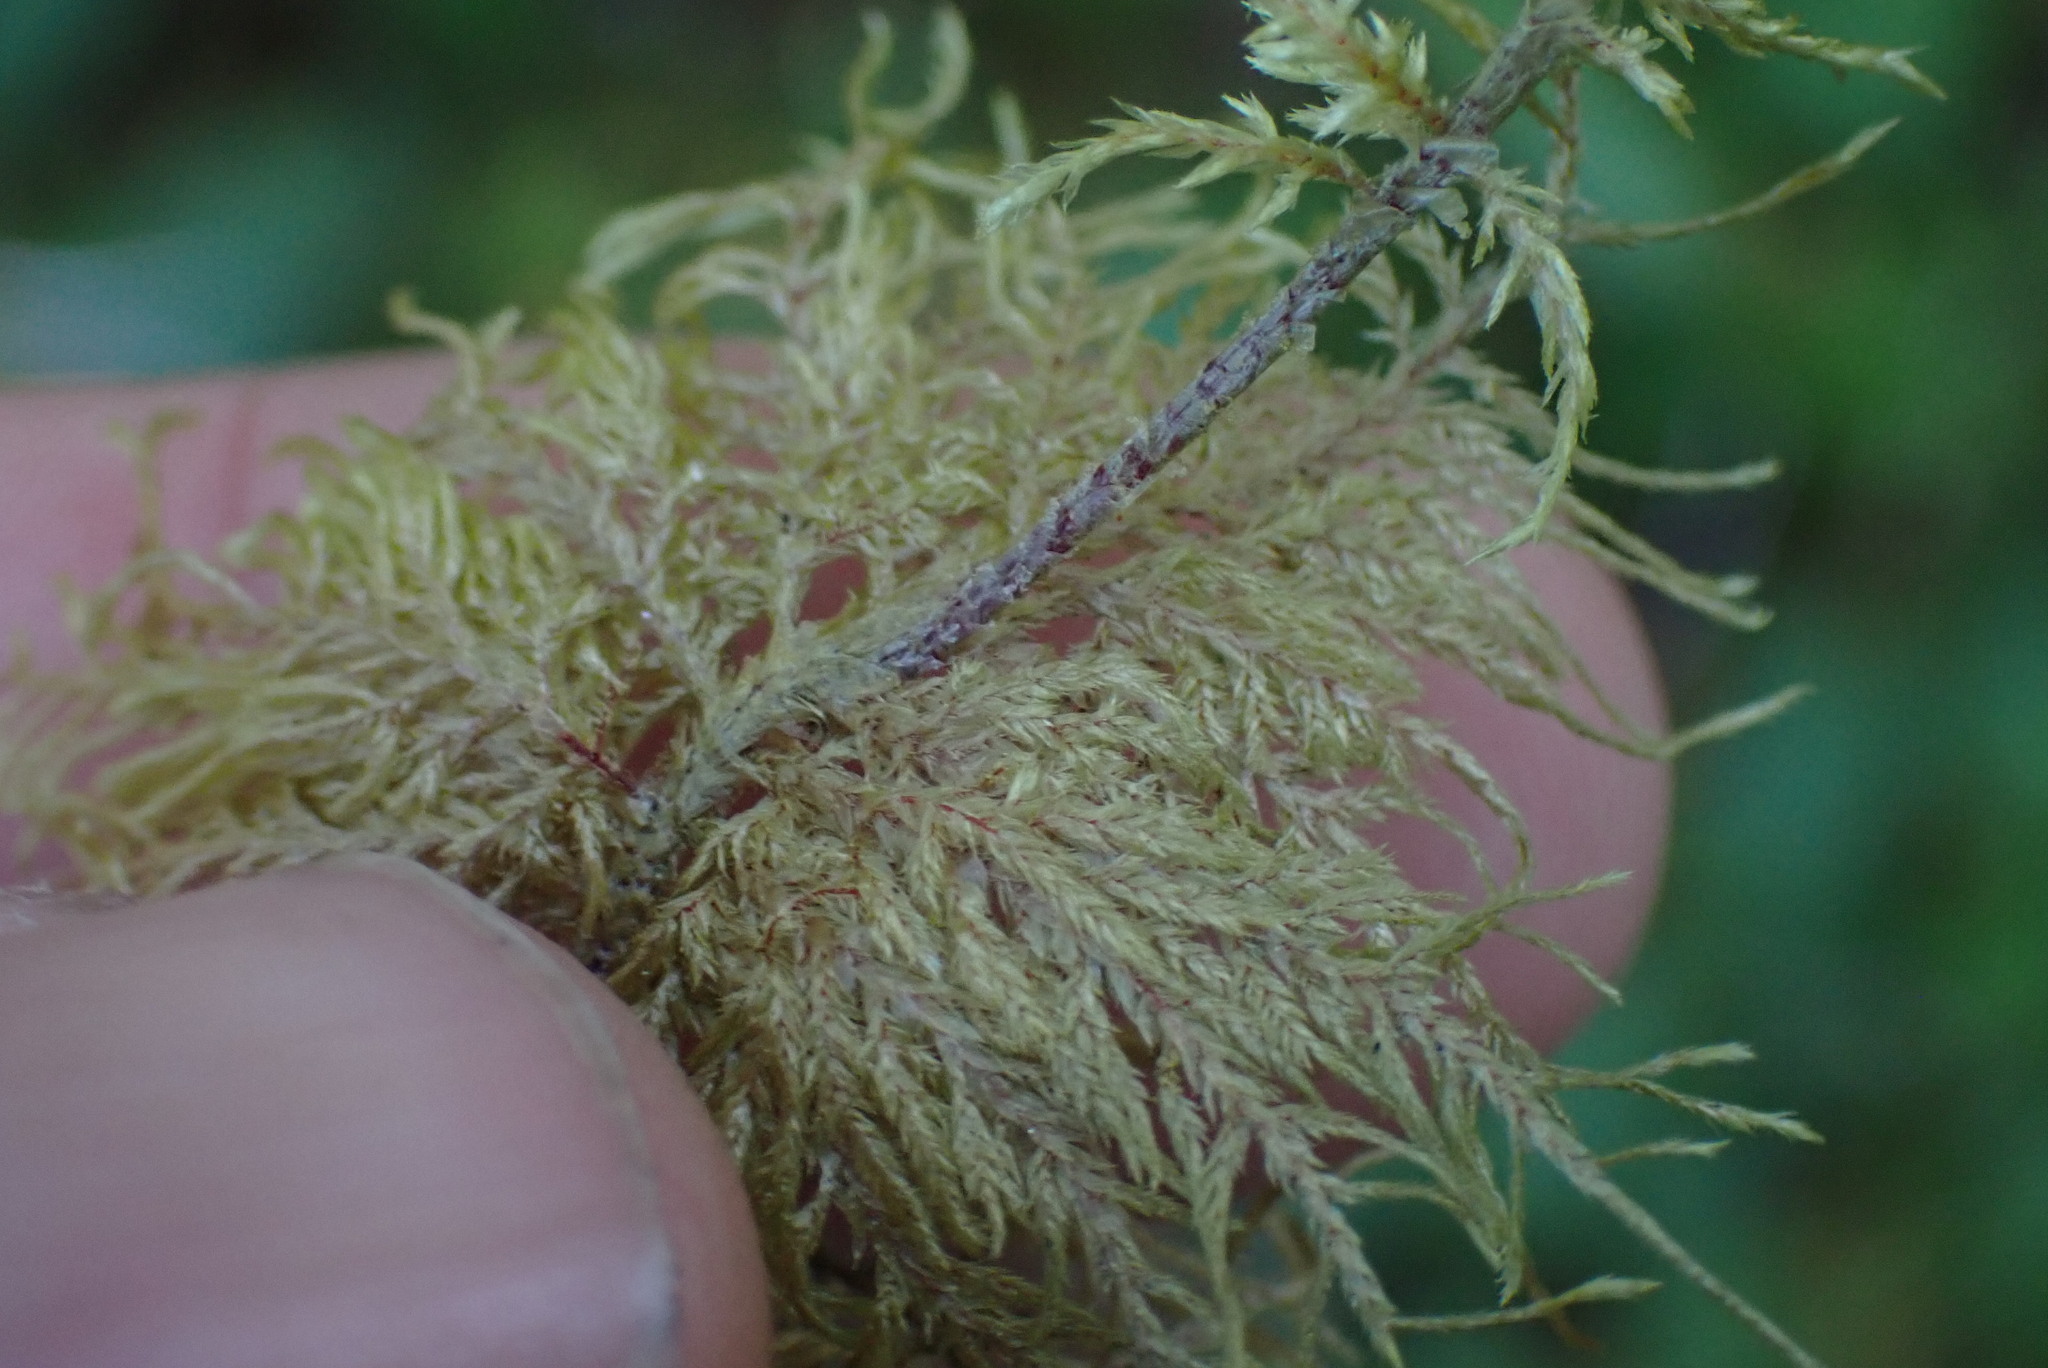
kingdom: Plantae
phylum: Bryophyta
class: Bryopsida
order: Hypnales
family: Hylocomiaceae
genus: Hylocomium
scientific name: Hylocomium splendens
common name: Stairstep moss
